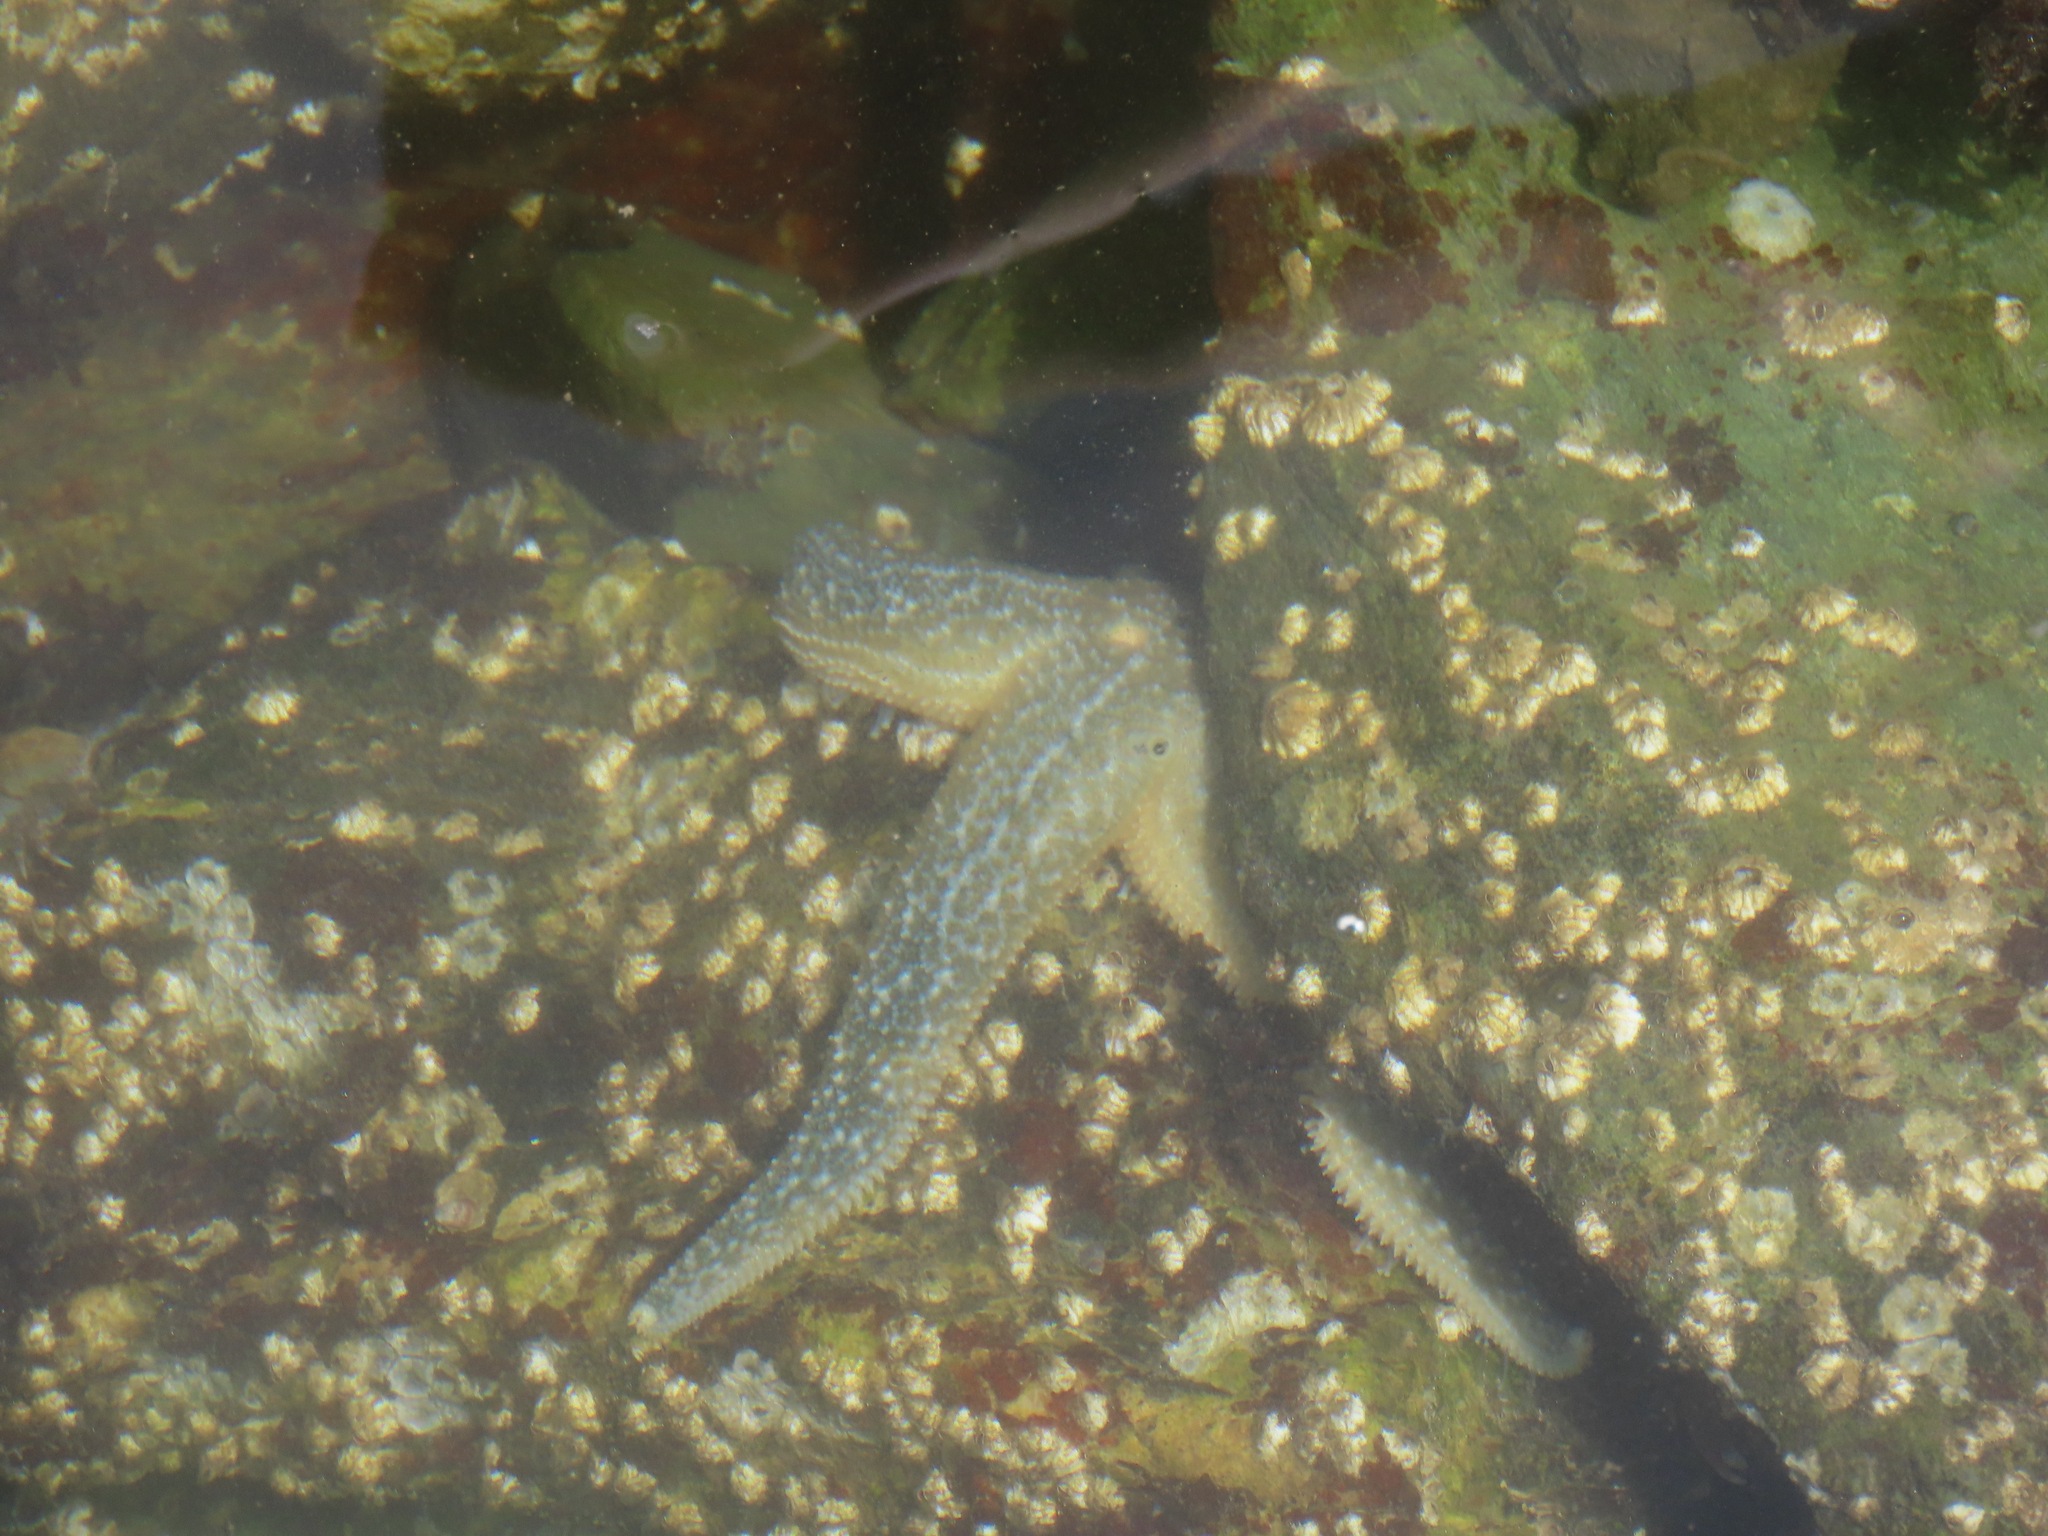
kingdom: Animalia
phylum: Echinodermata
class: Asteroidea
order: Forcipulatida
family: Asteriidae
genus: Evasterias
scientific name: Evasterias troschelii
